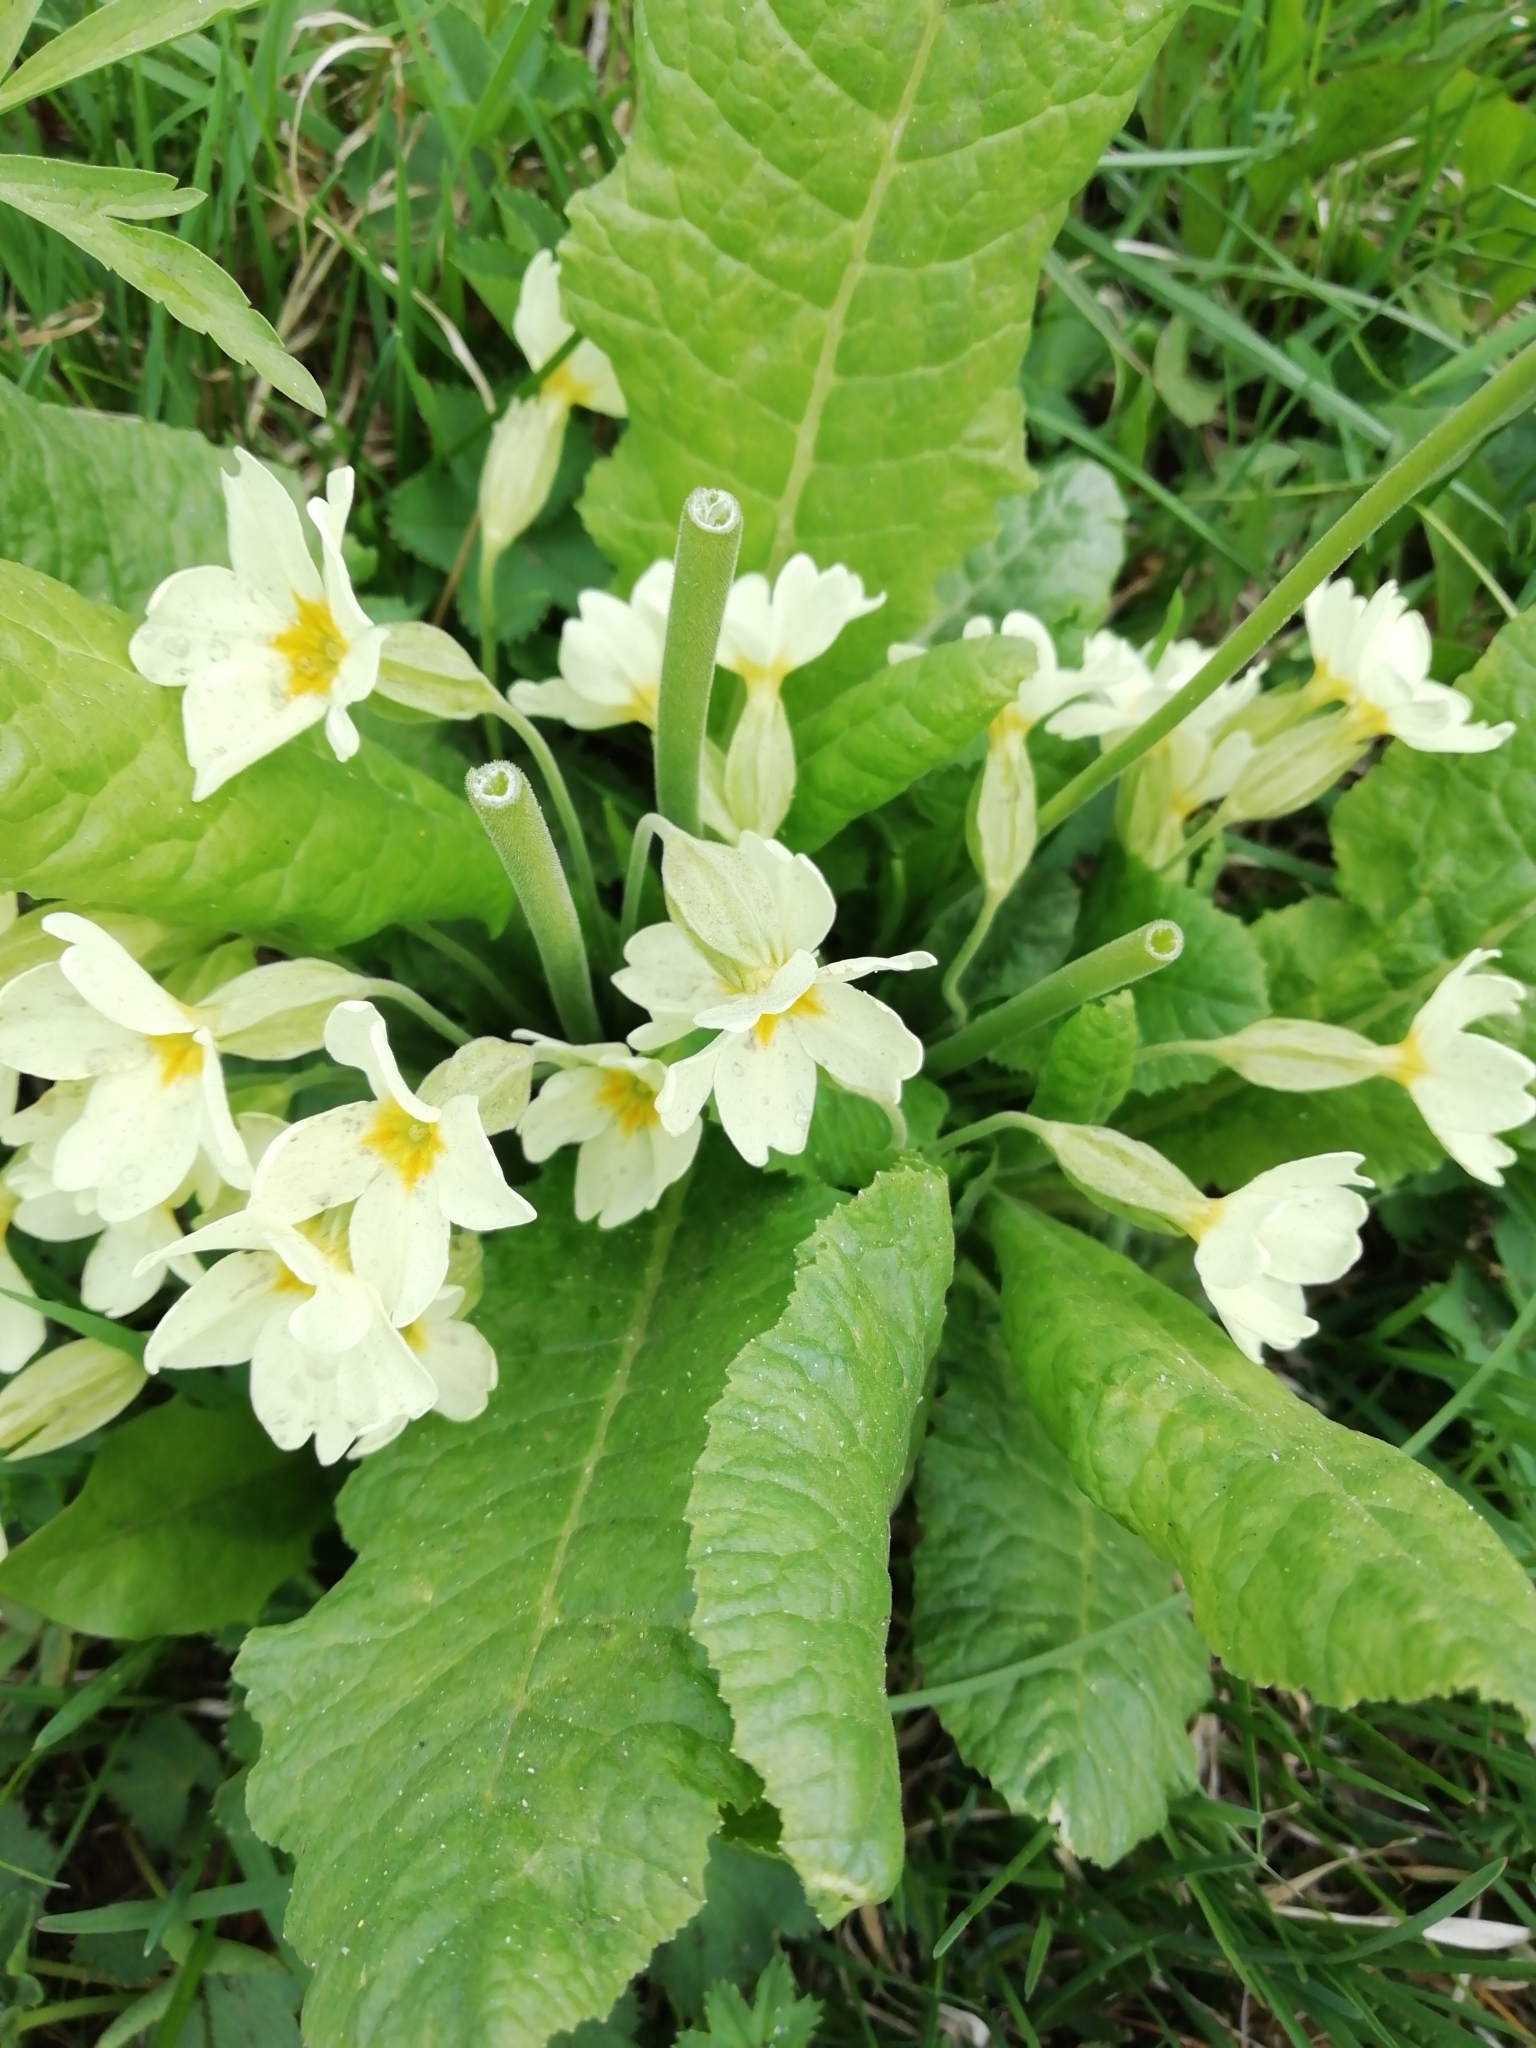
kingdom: Plantae
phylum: Tracheophyta
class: Magnoliopsida
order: Ericales
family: Primulaceae
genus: Primula
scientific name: Primula elatior
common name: Oxlip
